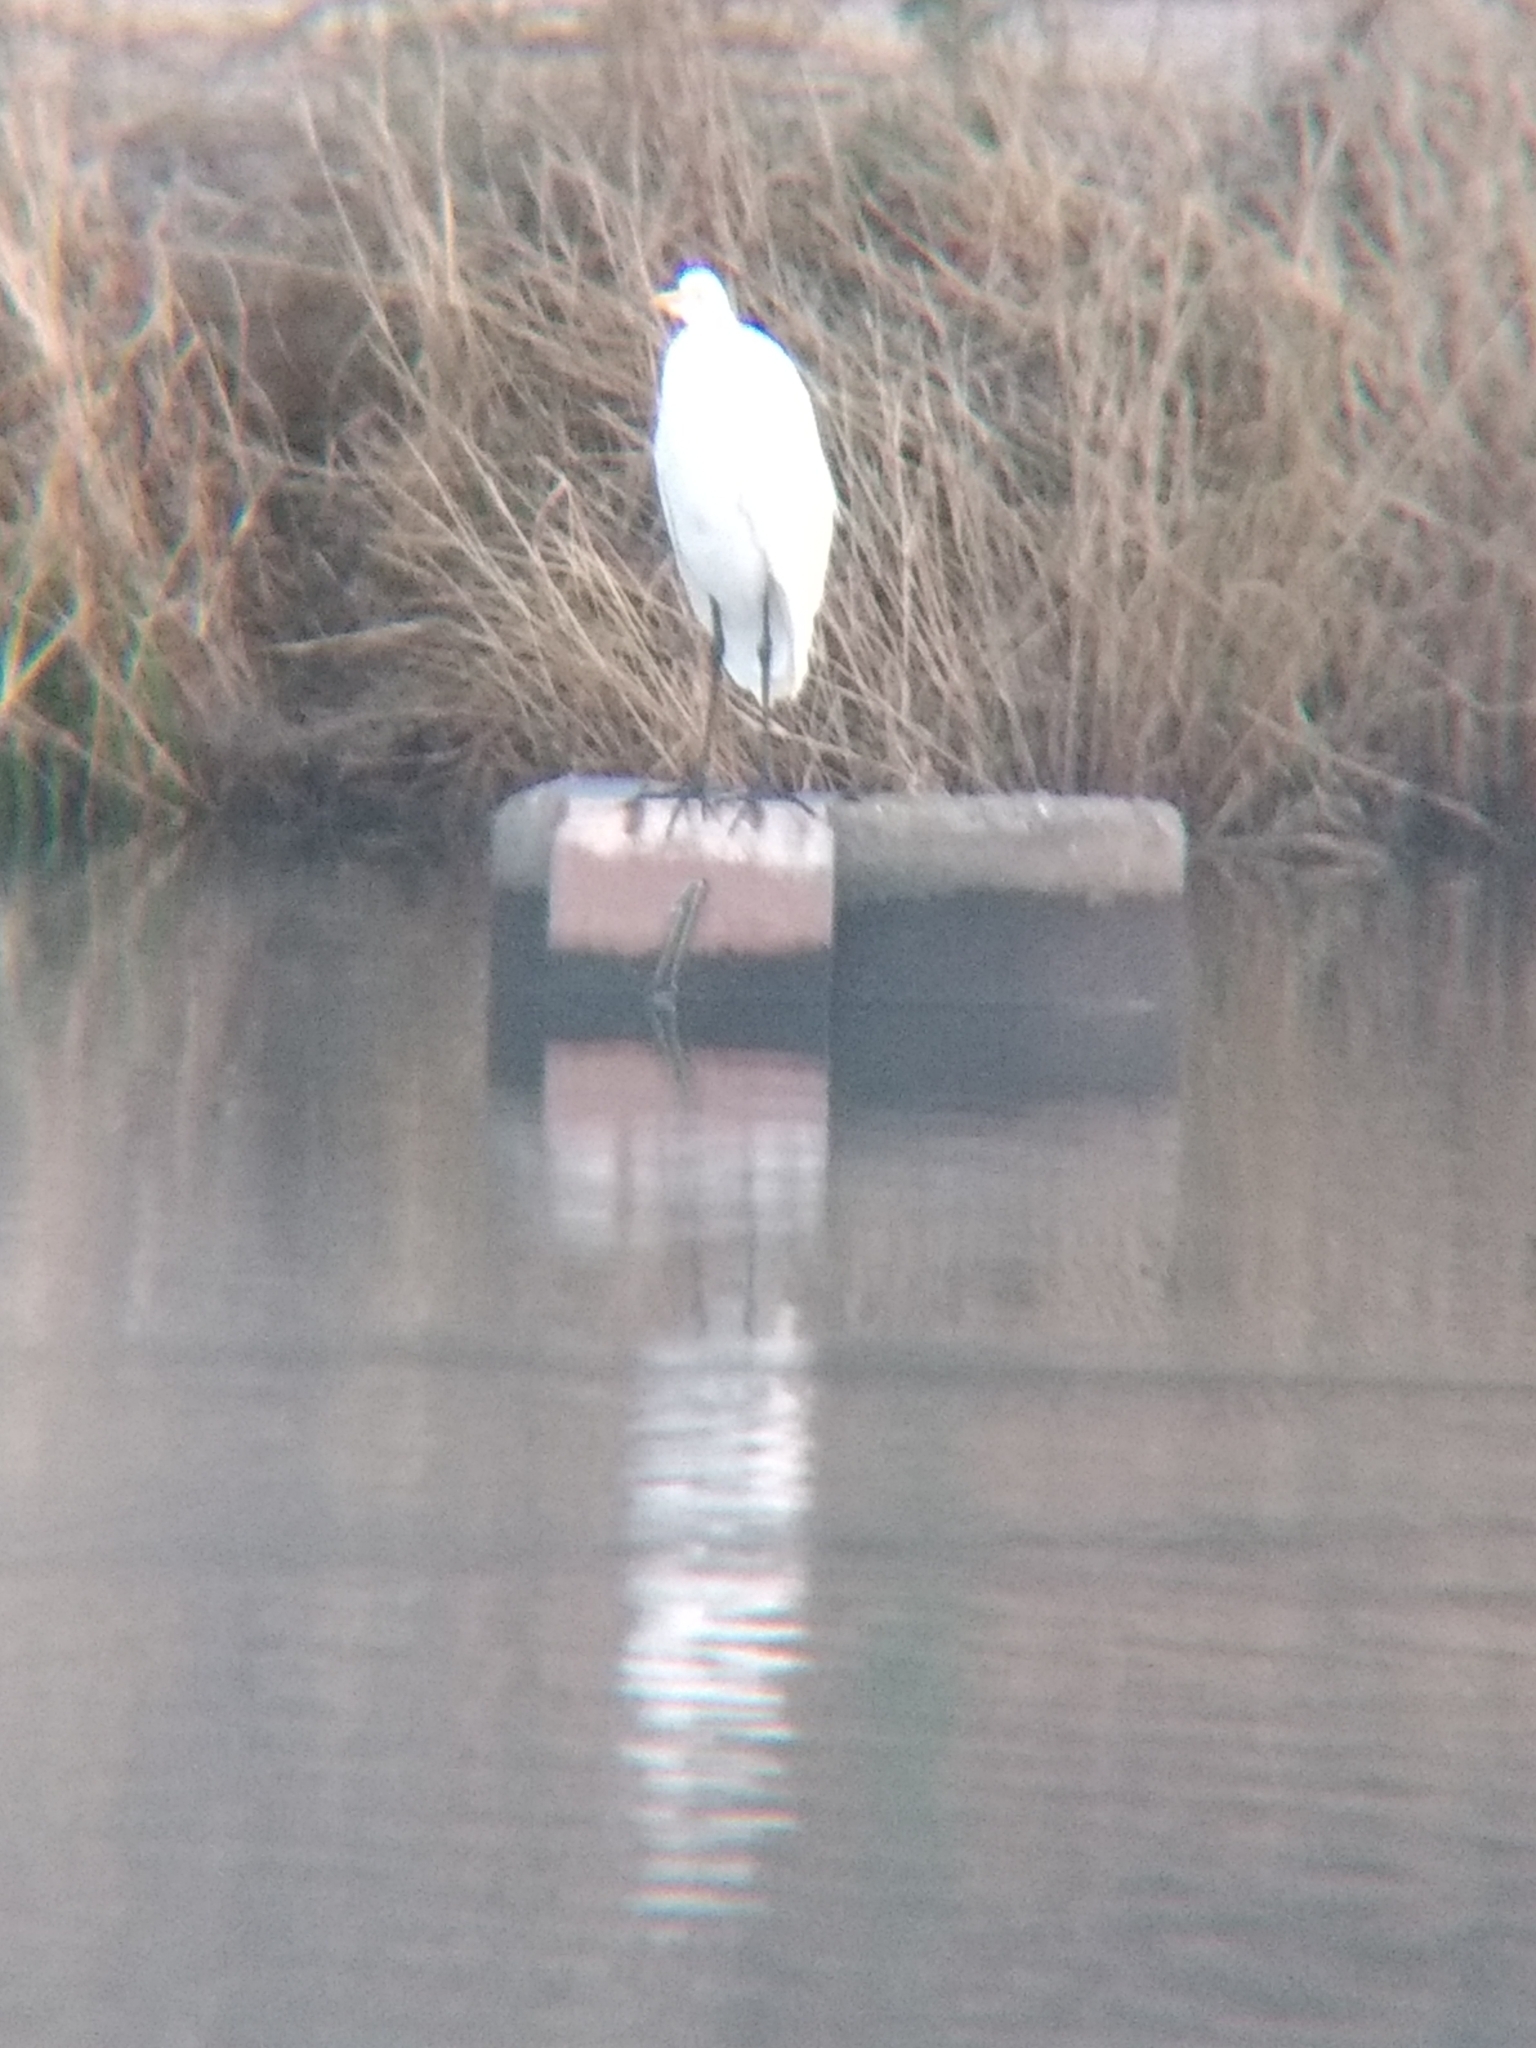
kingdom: Animalia
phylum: Chordata
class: Aves
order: Pelecaniformes
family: Ardeidae
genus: Ardea
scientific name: Ardea alba
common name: Great egret
